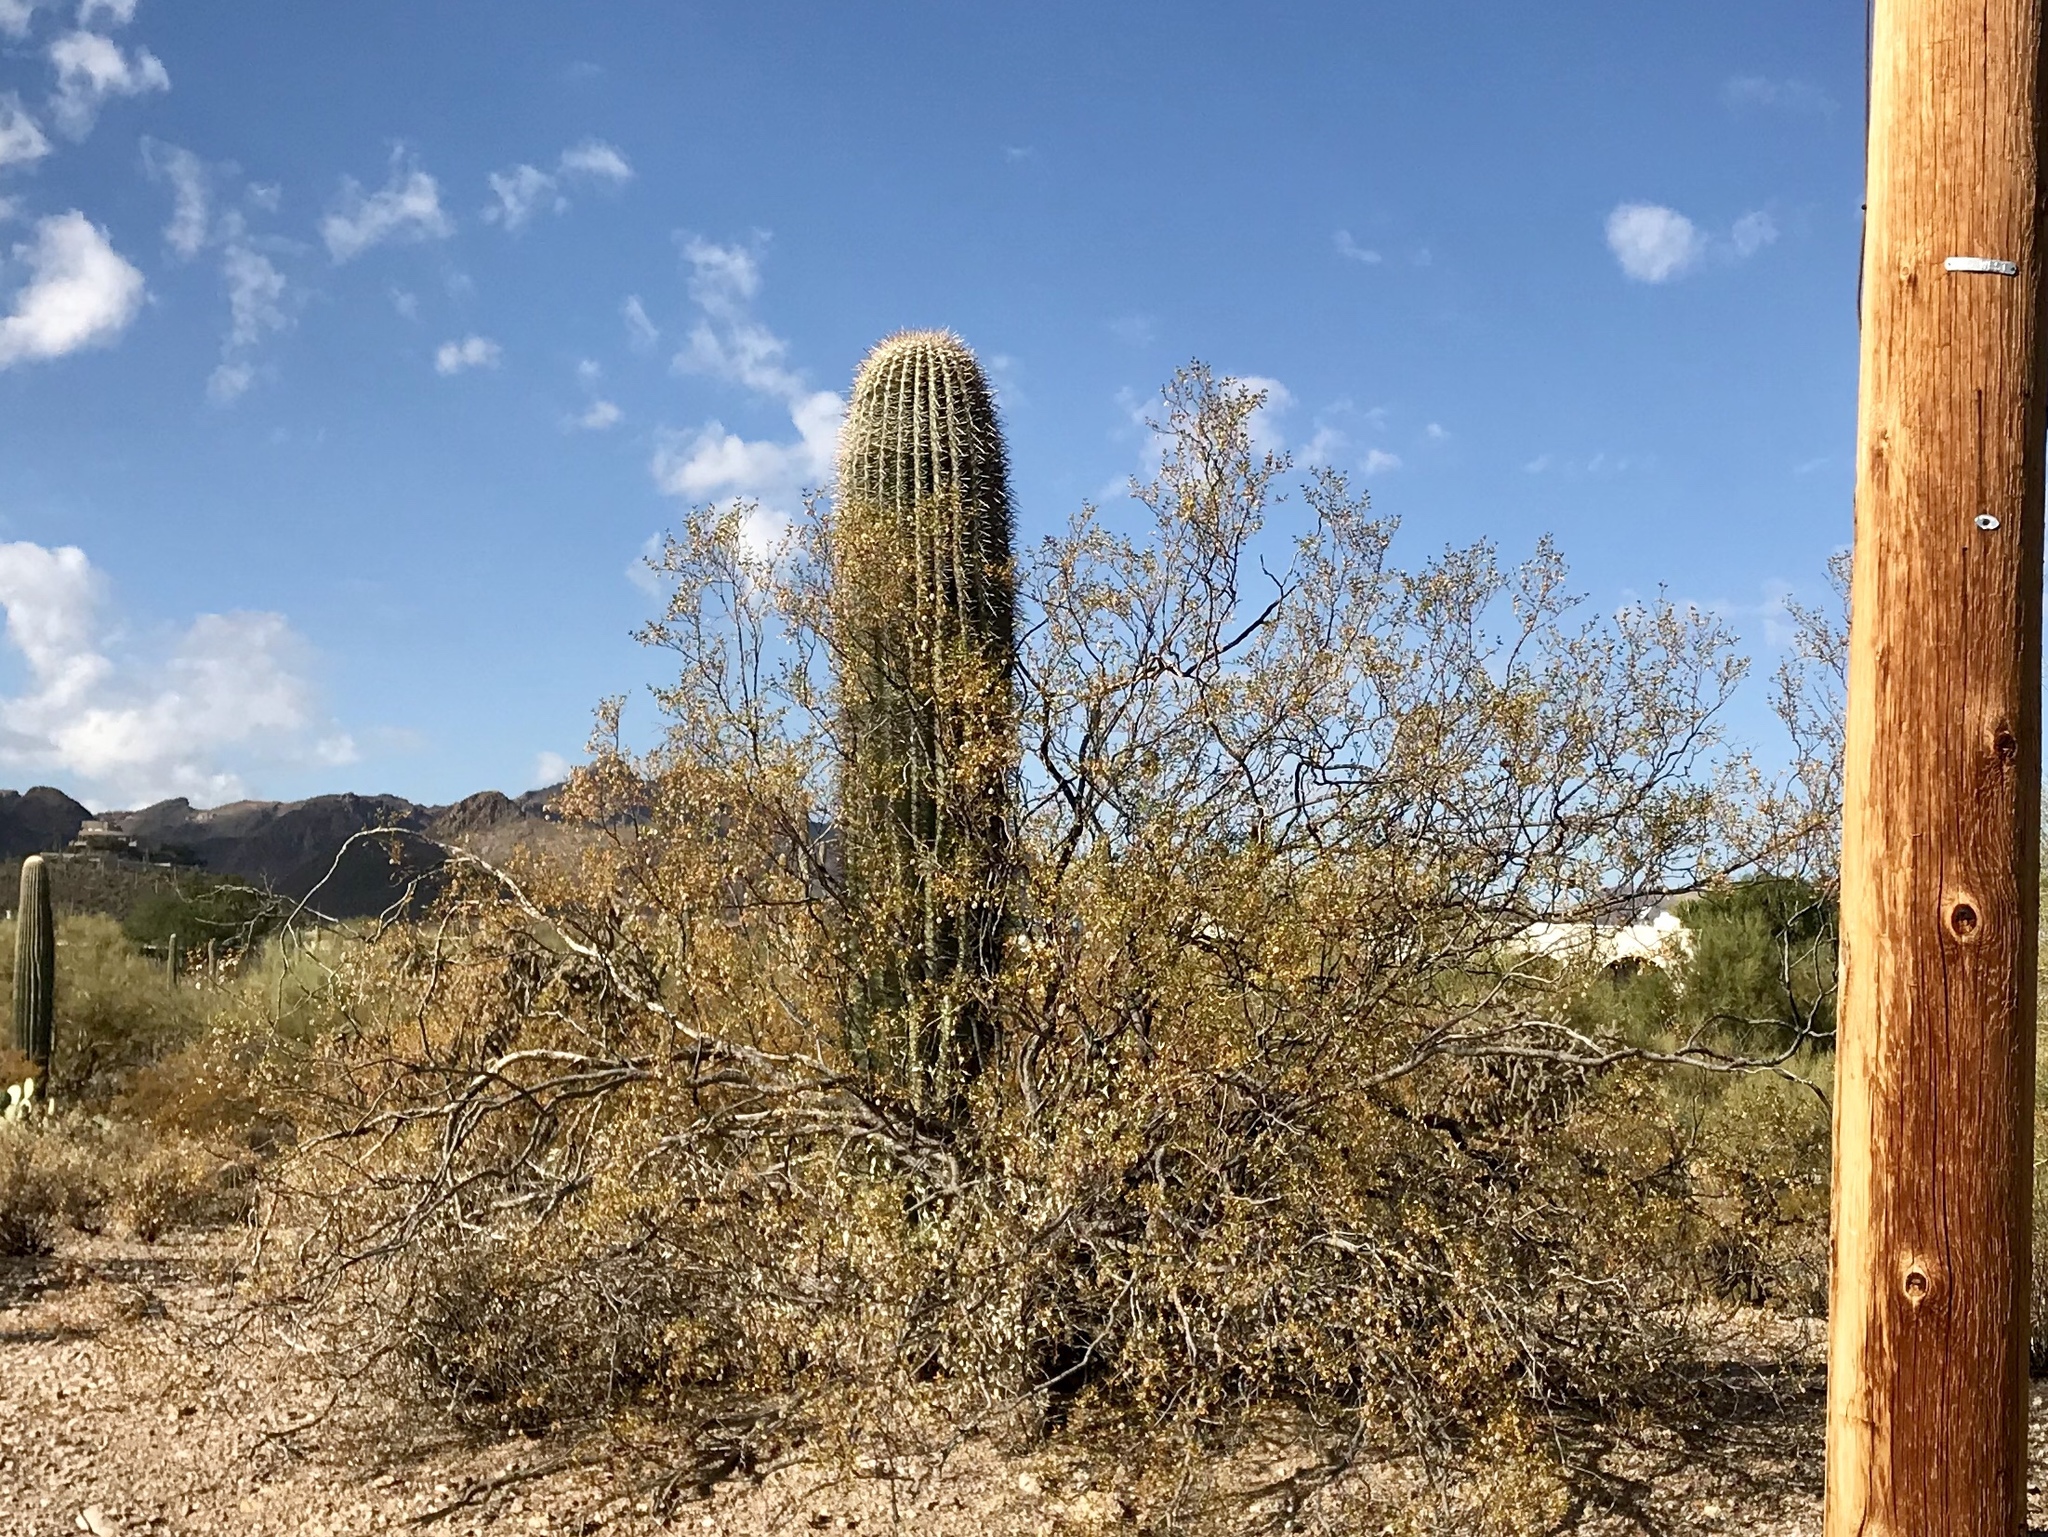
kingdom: Plantae
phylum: Tracheophyta
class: Magnoliopsida
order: Caryophyllales
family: Cactaceae
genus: Carnegiea
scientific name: Carnegiea gigantea
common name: Saguaro
